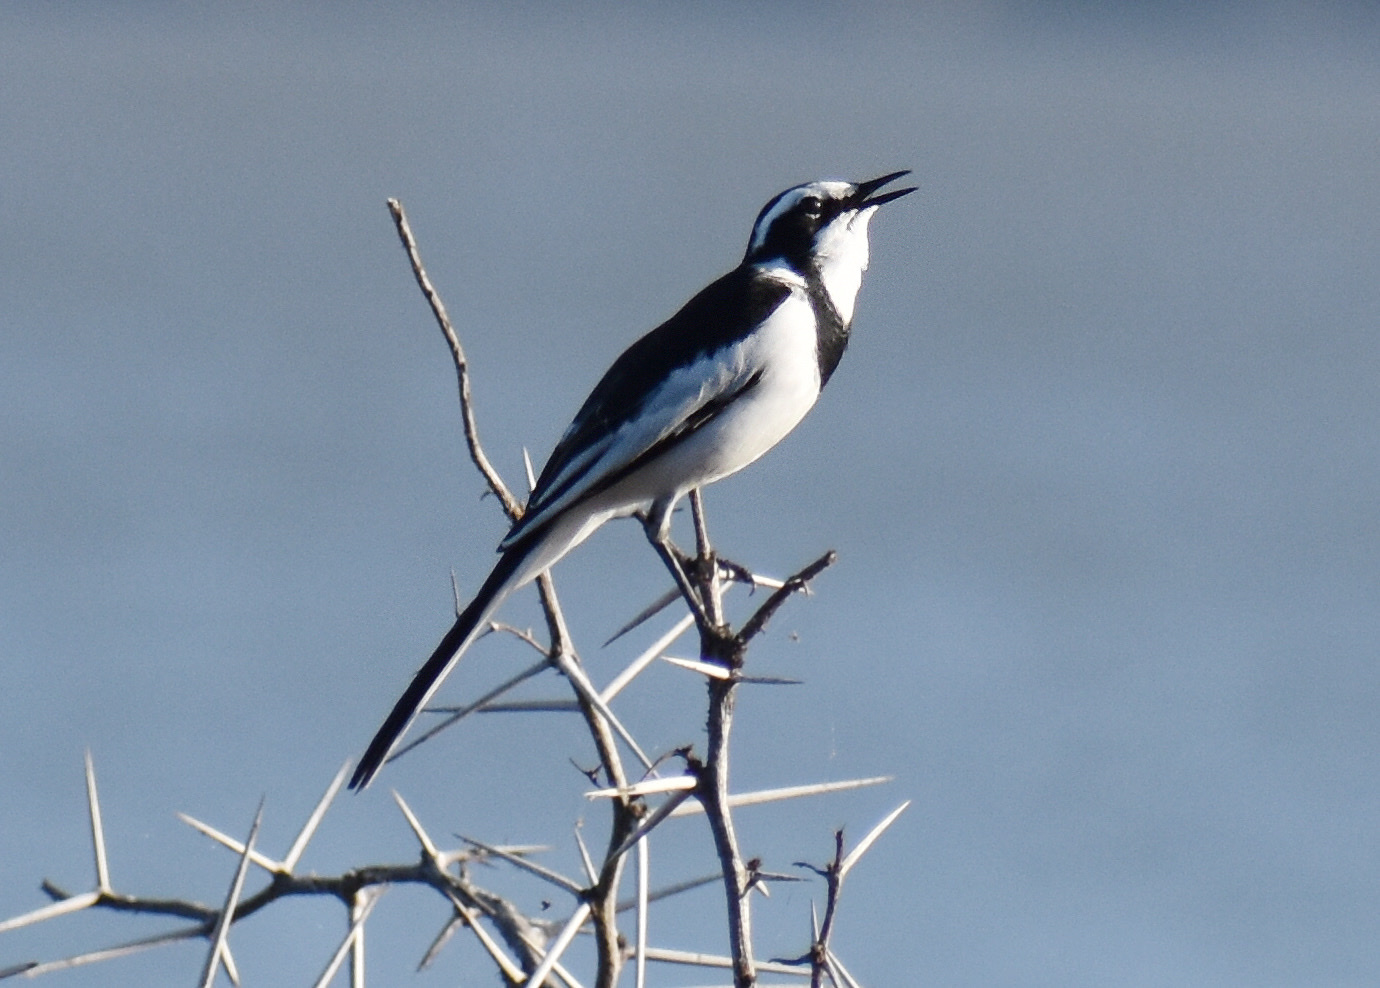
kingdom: Animalia
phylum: Chordata
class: Aves
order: Passeriformes
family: Motacillidae
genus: Motacilla
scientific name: Motacilla aguimp
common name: African pied wagtail
